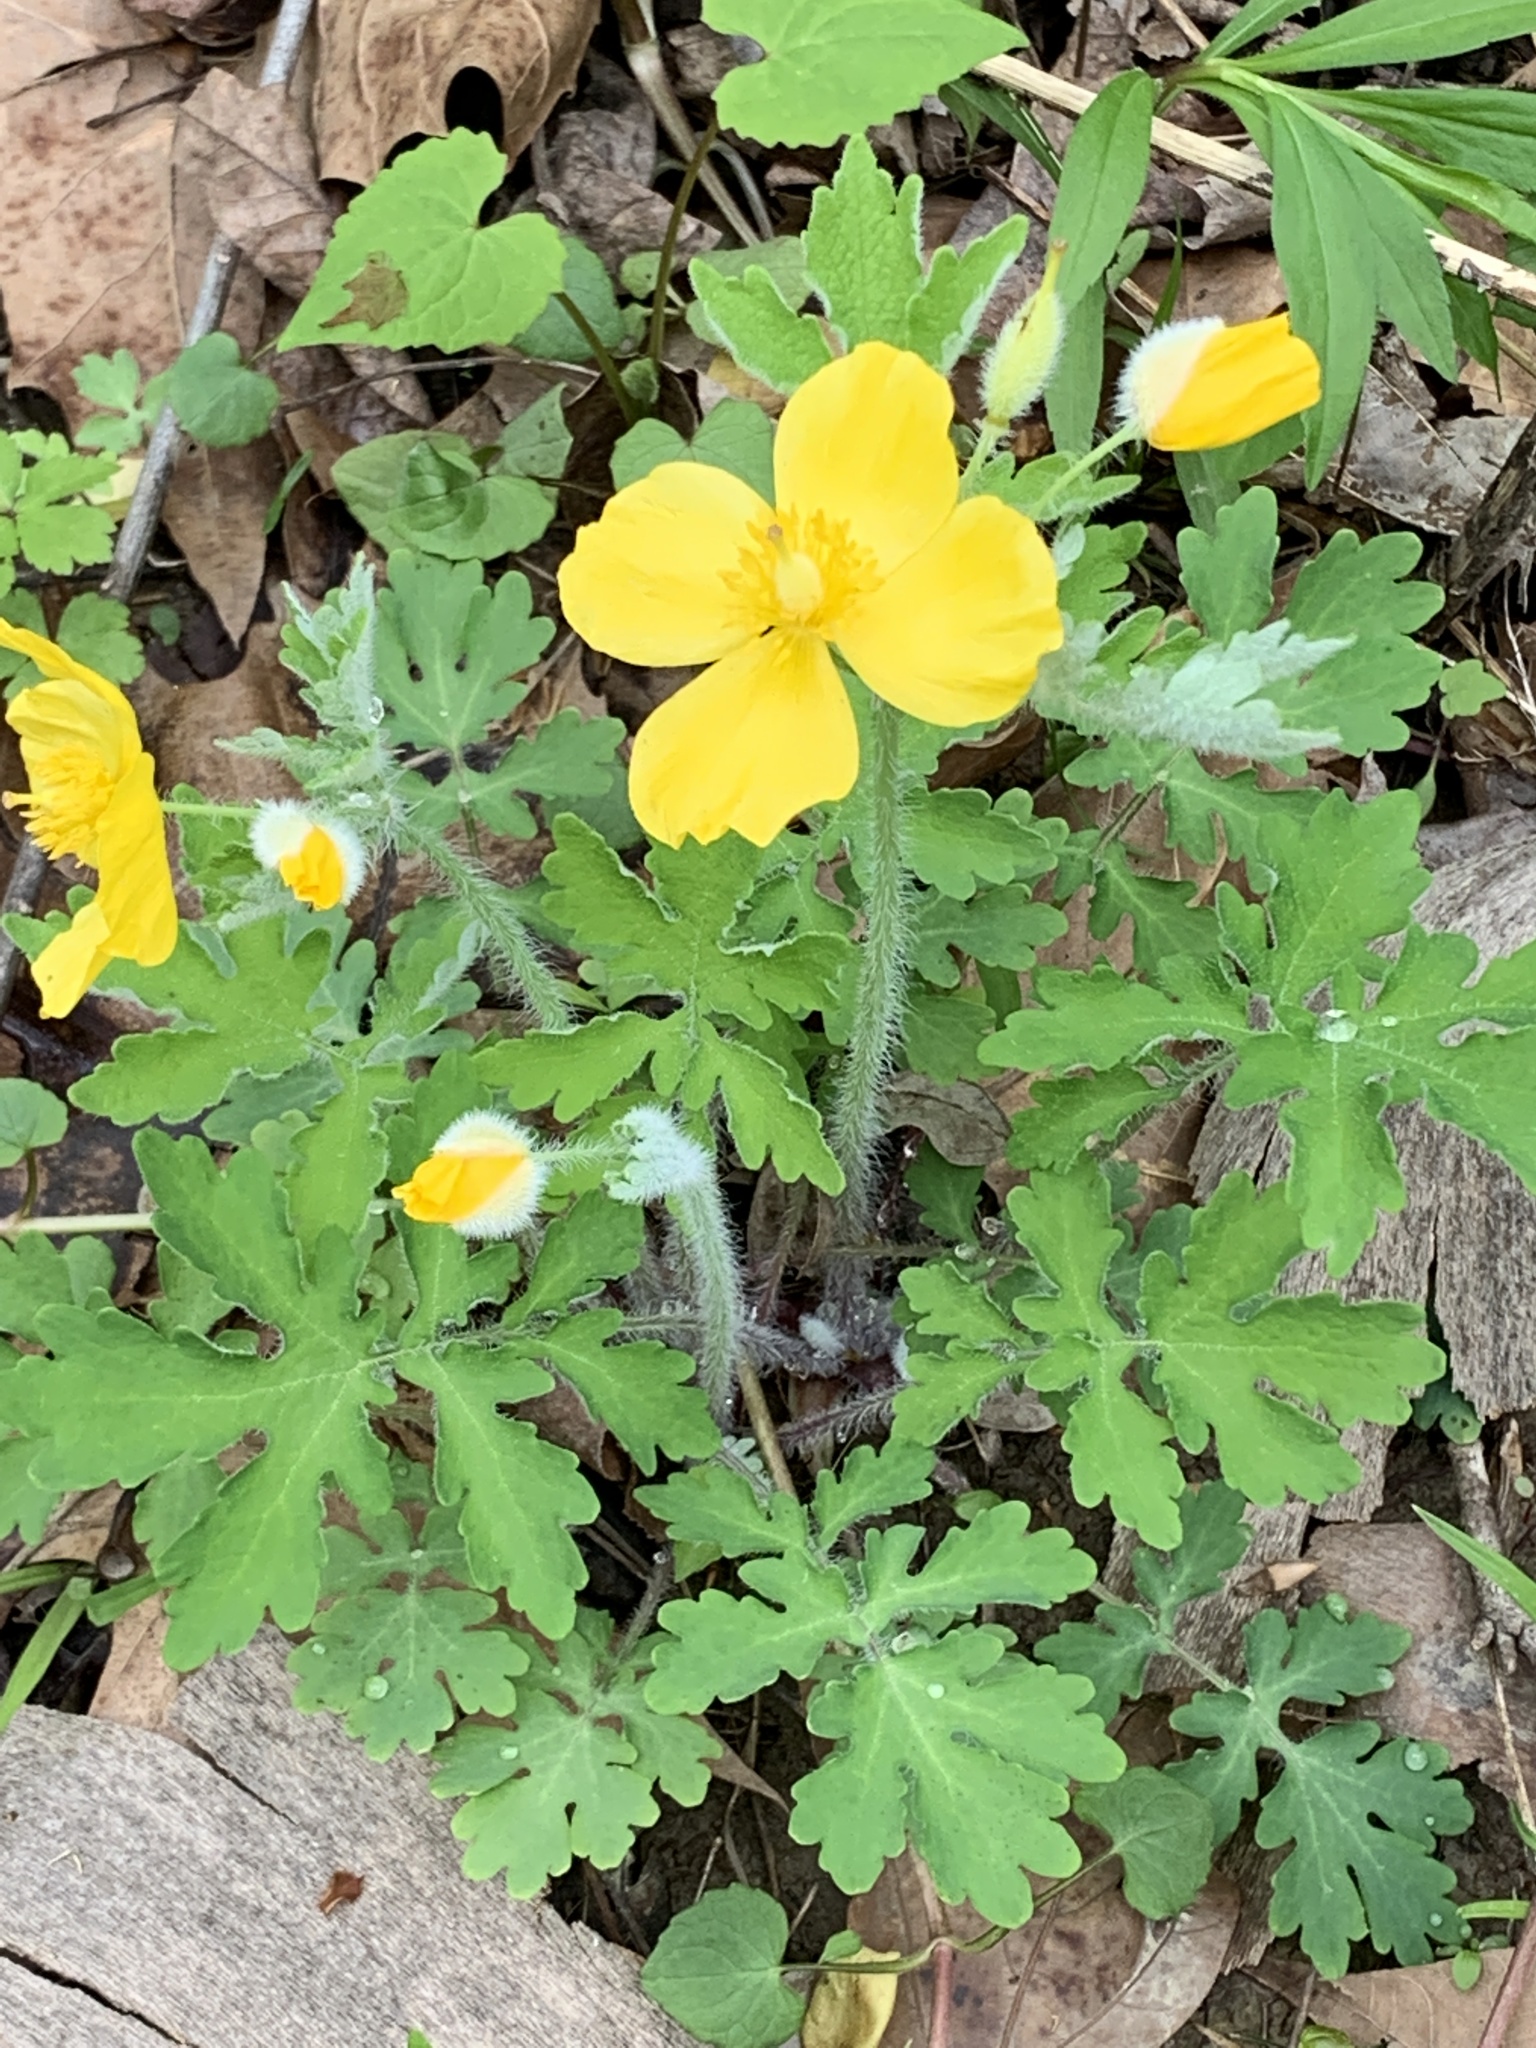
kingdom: Plantae
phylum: Tracheophyta
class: Magnoliopsida
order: Ranunculales
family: Papaveraceae
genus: Stylophorum
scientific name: Stylophorum diphyllum
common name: Celandine poppy
